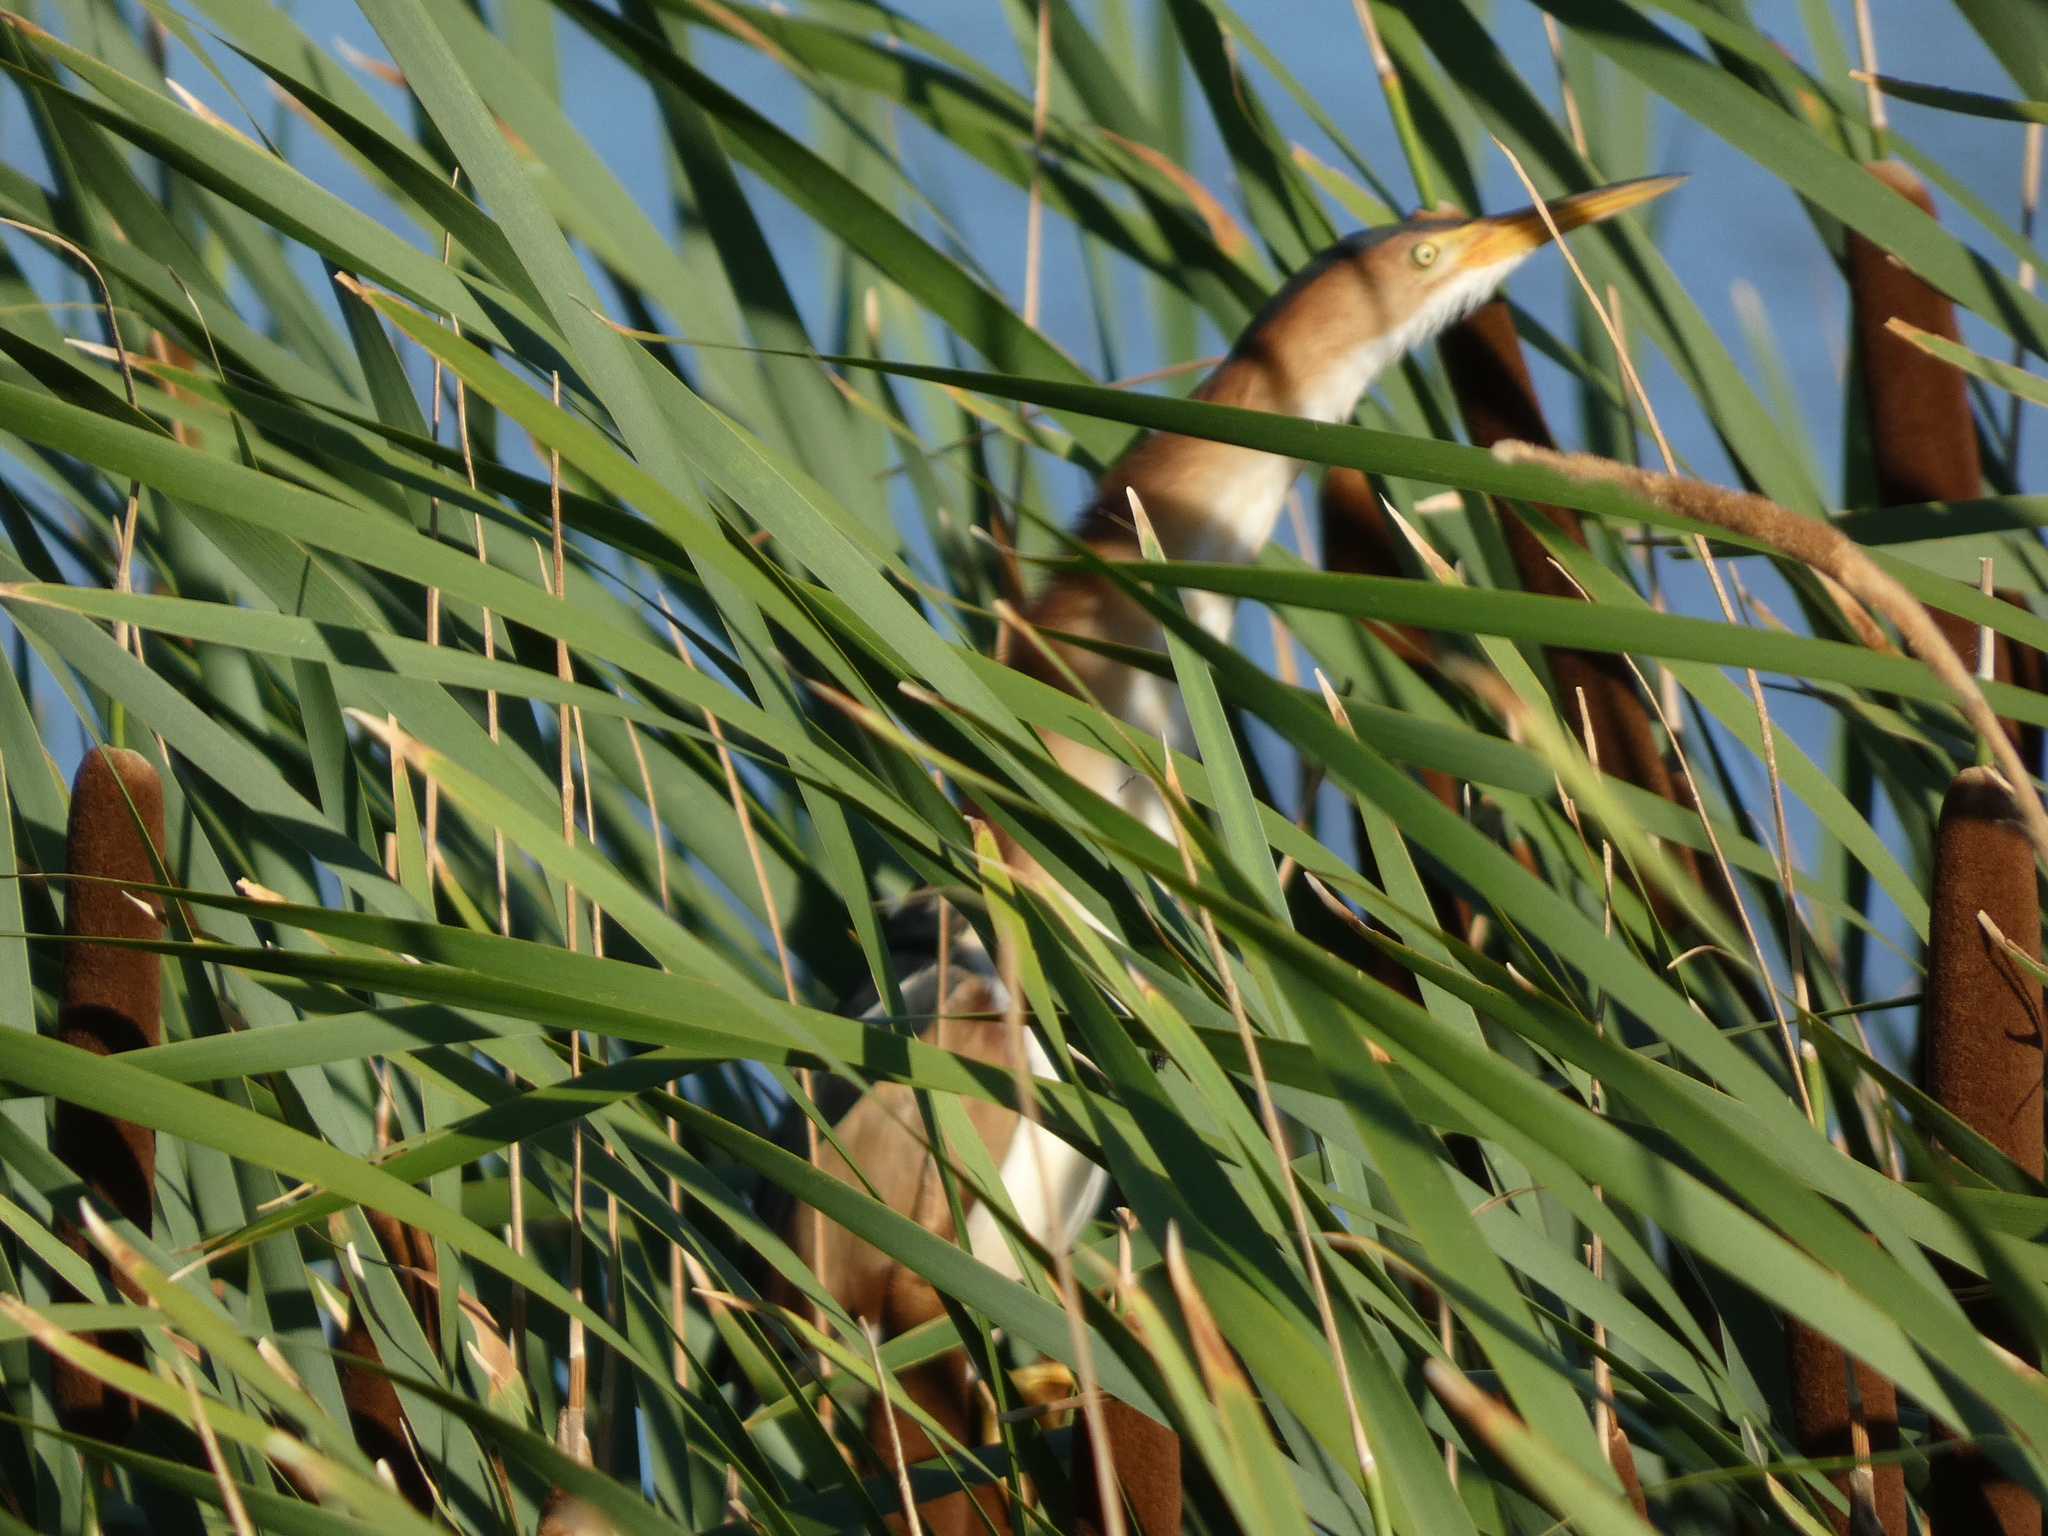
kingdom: Animalia
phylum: Chordata
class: Aves
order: Pelecaniformes
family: Ardeidae
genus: Ixobrychus
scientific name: Ixobrychus exilis
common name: Least bittern
